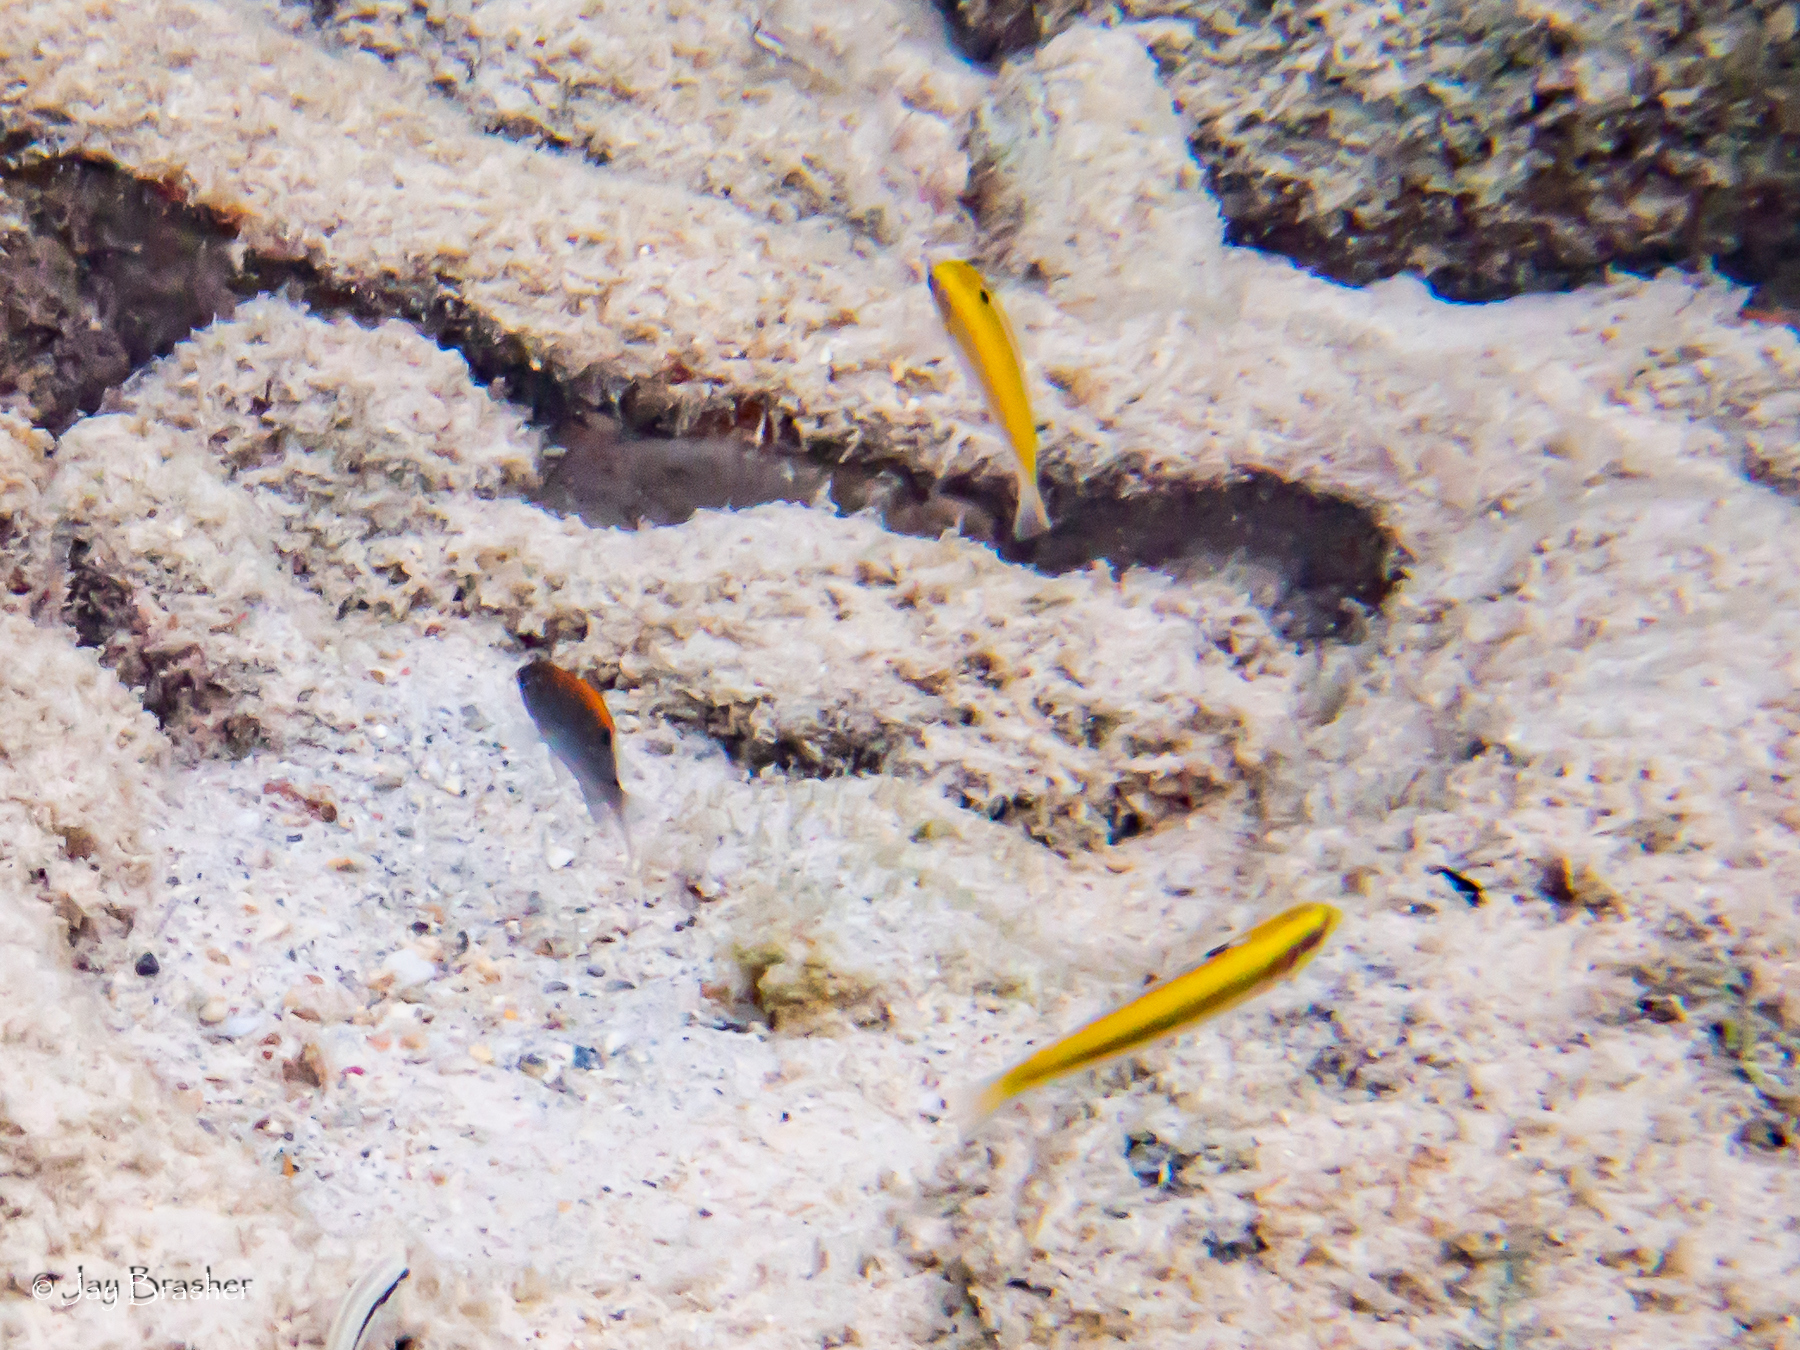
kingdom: Animalia
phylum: Chordata
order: Perciformes
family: Labridae
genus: Thalassoma
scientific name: Thalassoma bifasciatum
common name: Bluehead wrasse
